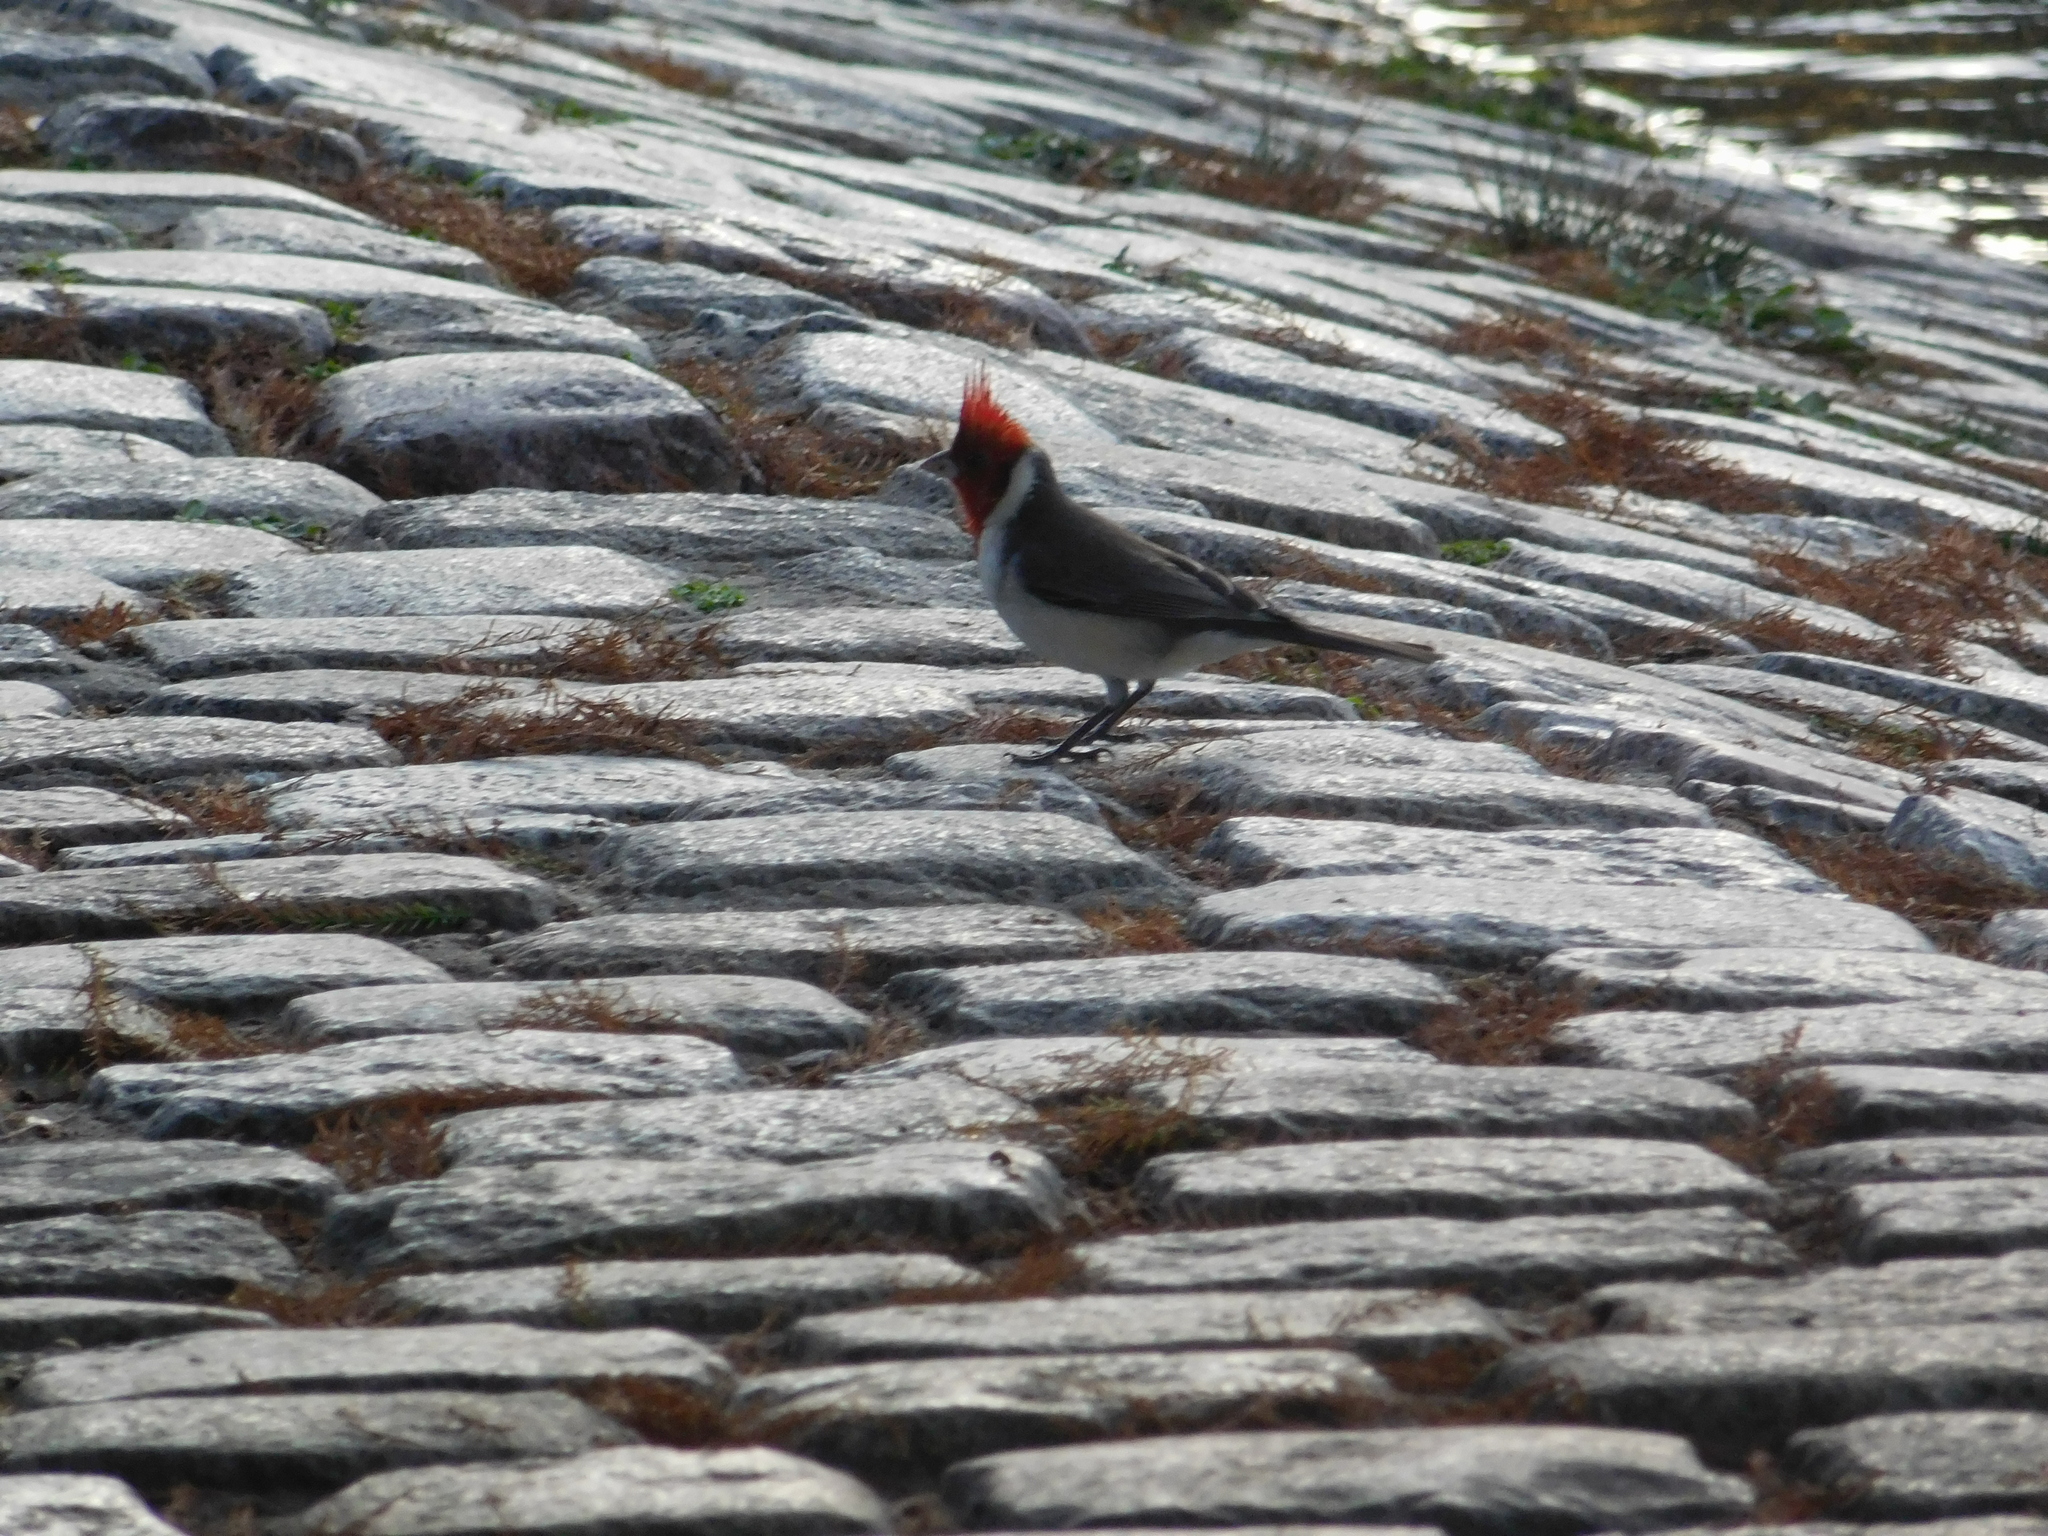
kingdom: Animalia
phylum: Chordata
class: Aves
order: Passeriformes
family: Thraupidae
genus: Paroaria
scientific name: Paroaria coronata
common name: Red-crested cardinal
